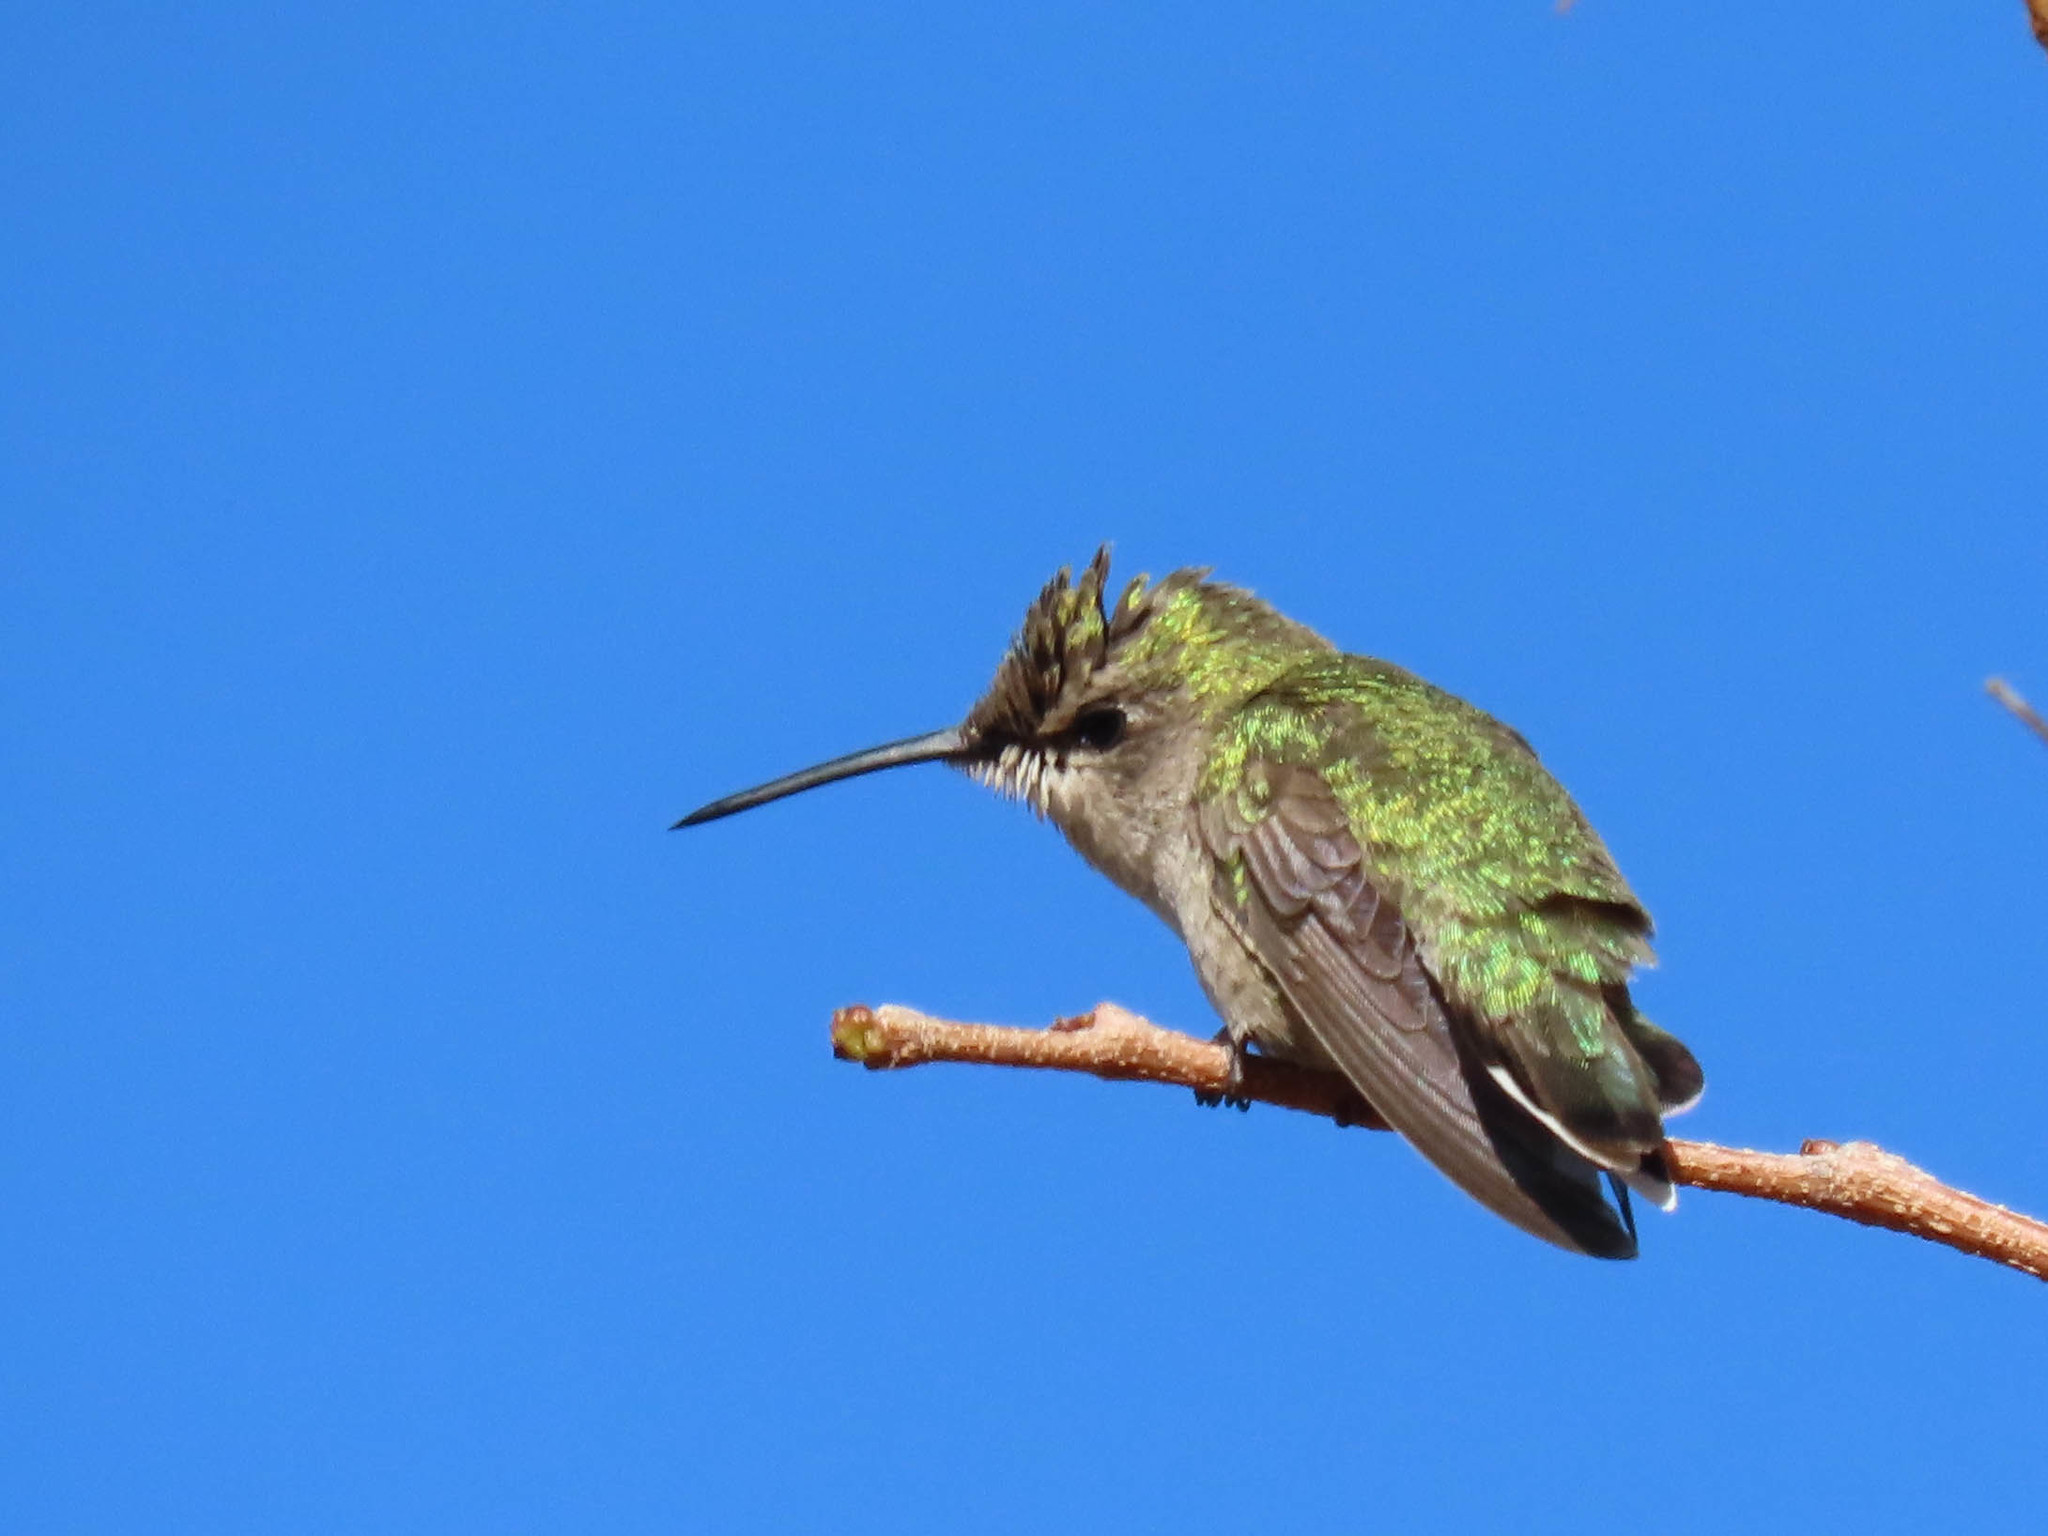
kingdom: Animalia
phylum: Chordata
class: Aves
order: Apodiformes
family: Trochilidae
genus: Calypte
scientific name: Calypte costae
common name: Costa's hummingbird
